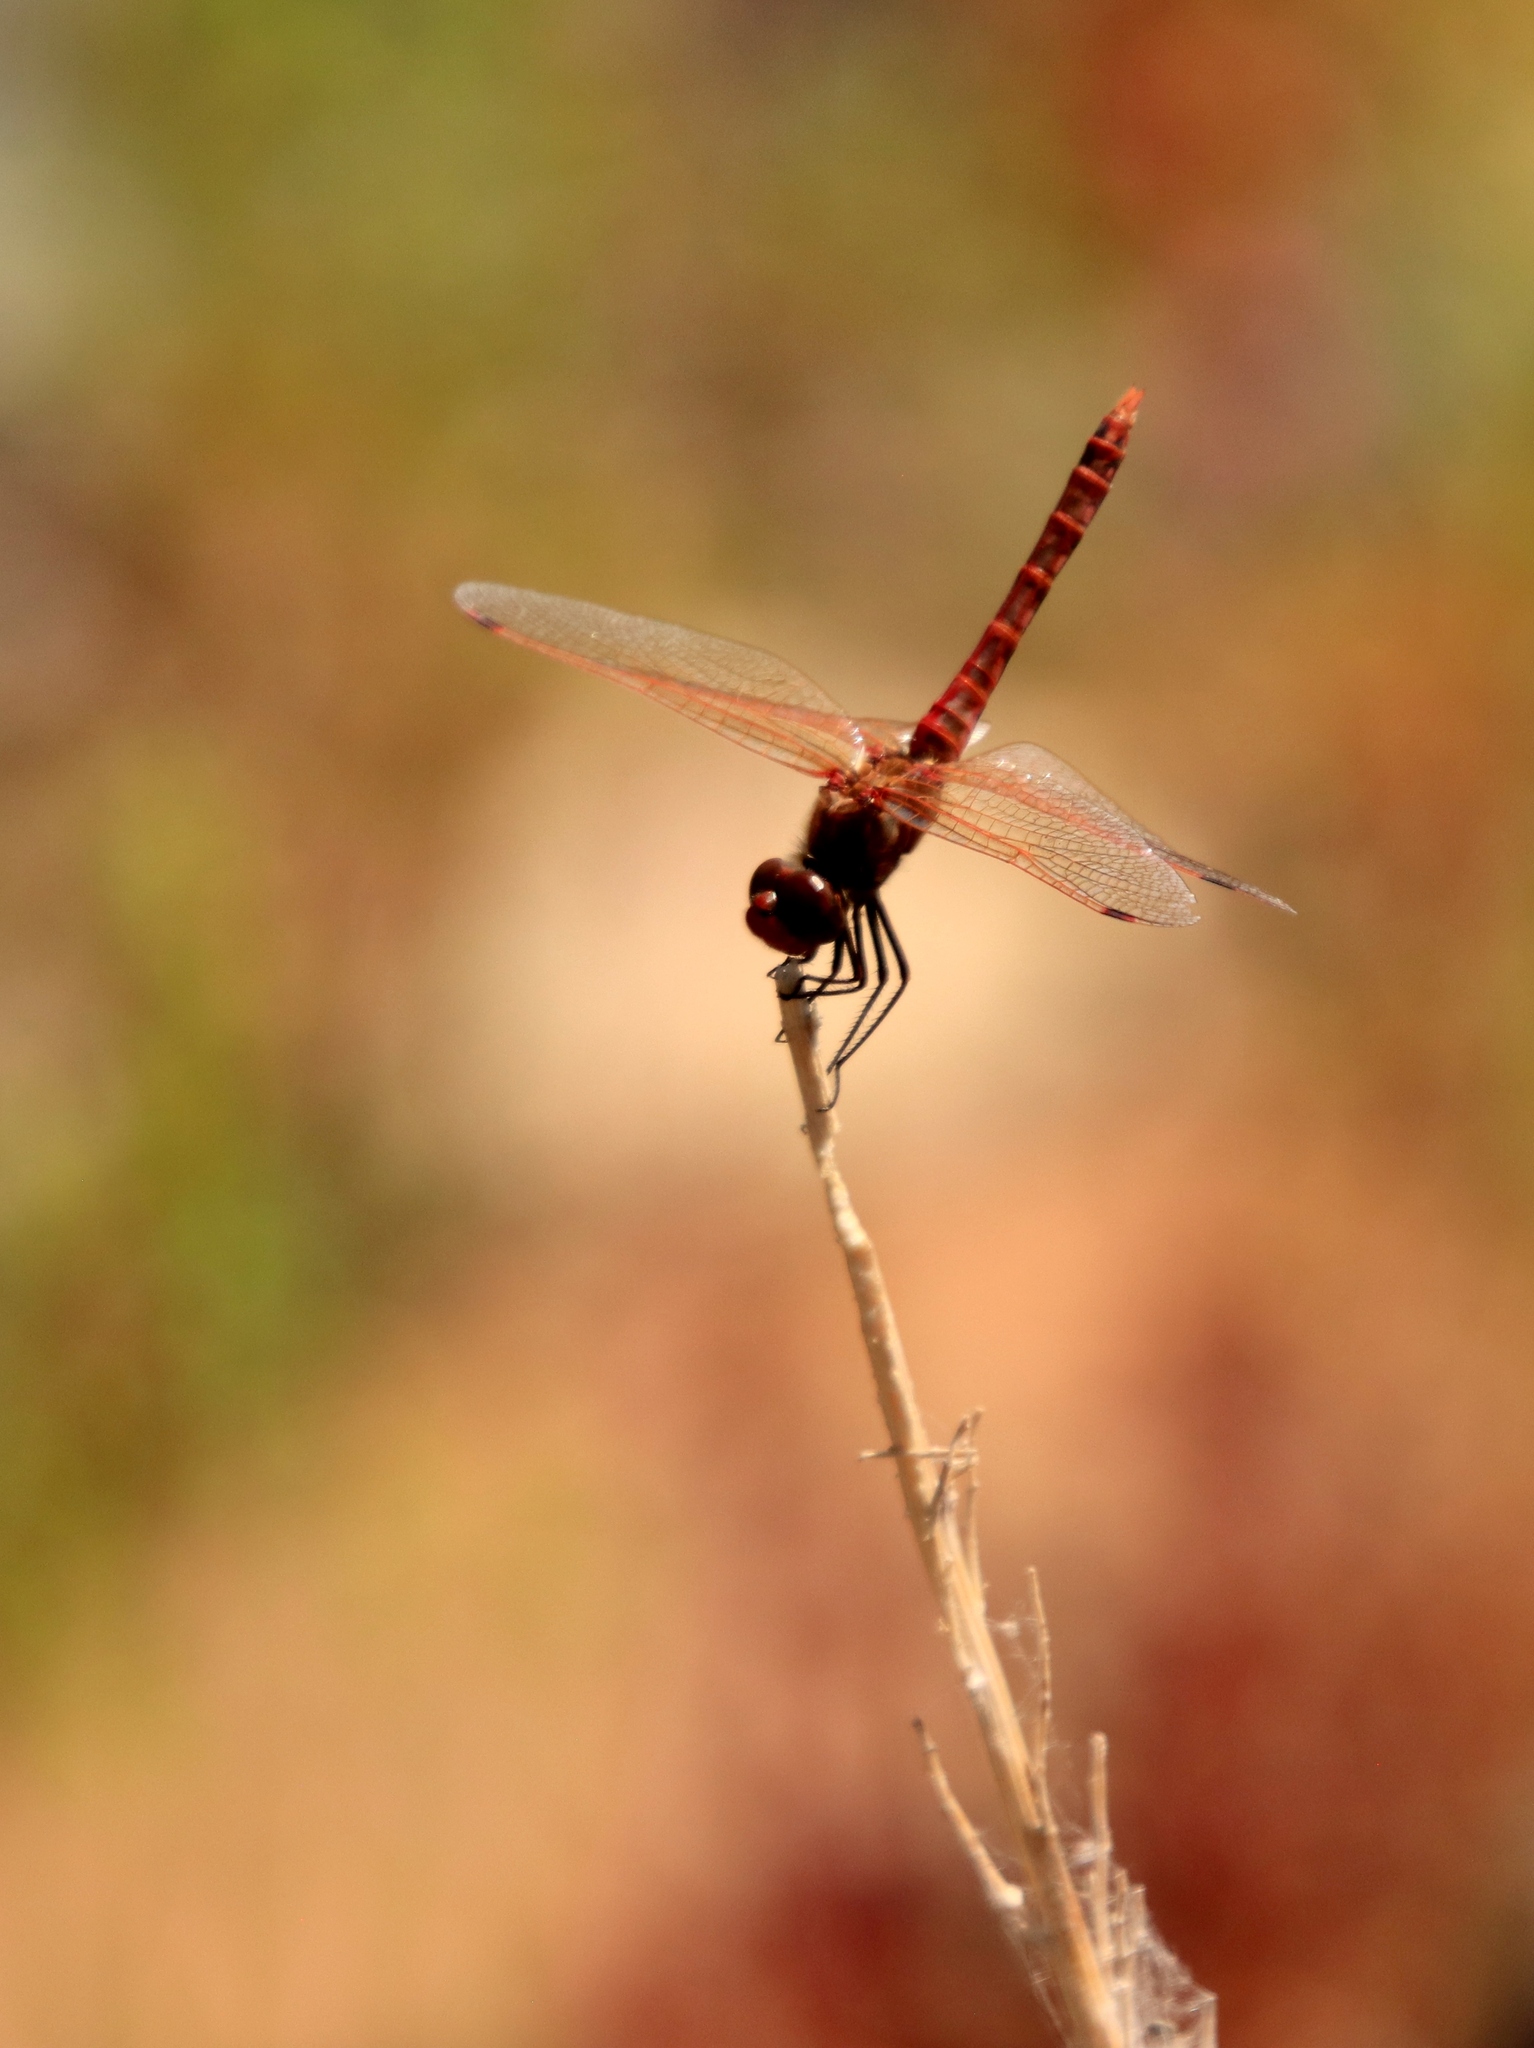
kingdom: Animalia
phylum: Arthropoda
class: Insecta
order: Odonata
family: Libellulidae
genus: Sympetrum
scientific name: Sympetrum corruptum
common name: Variegated meadowhawk
